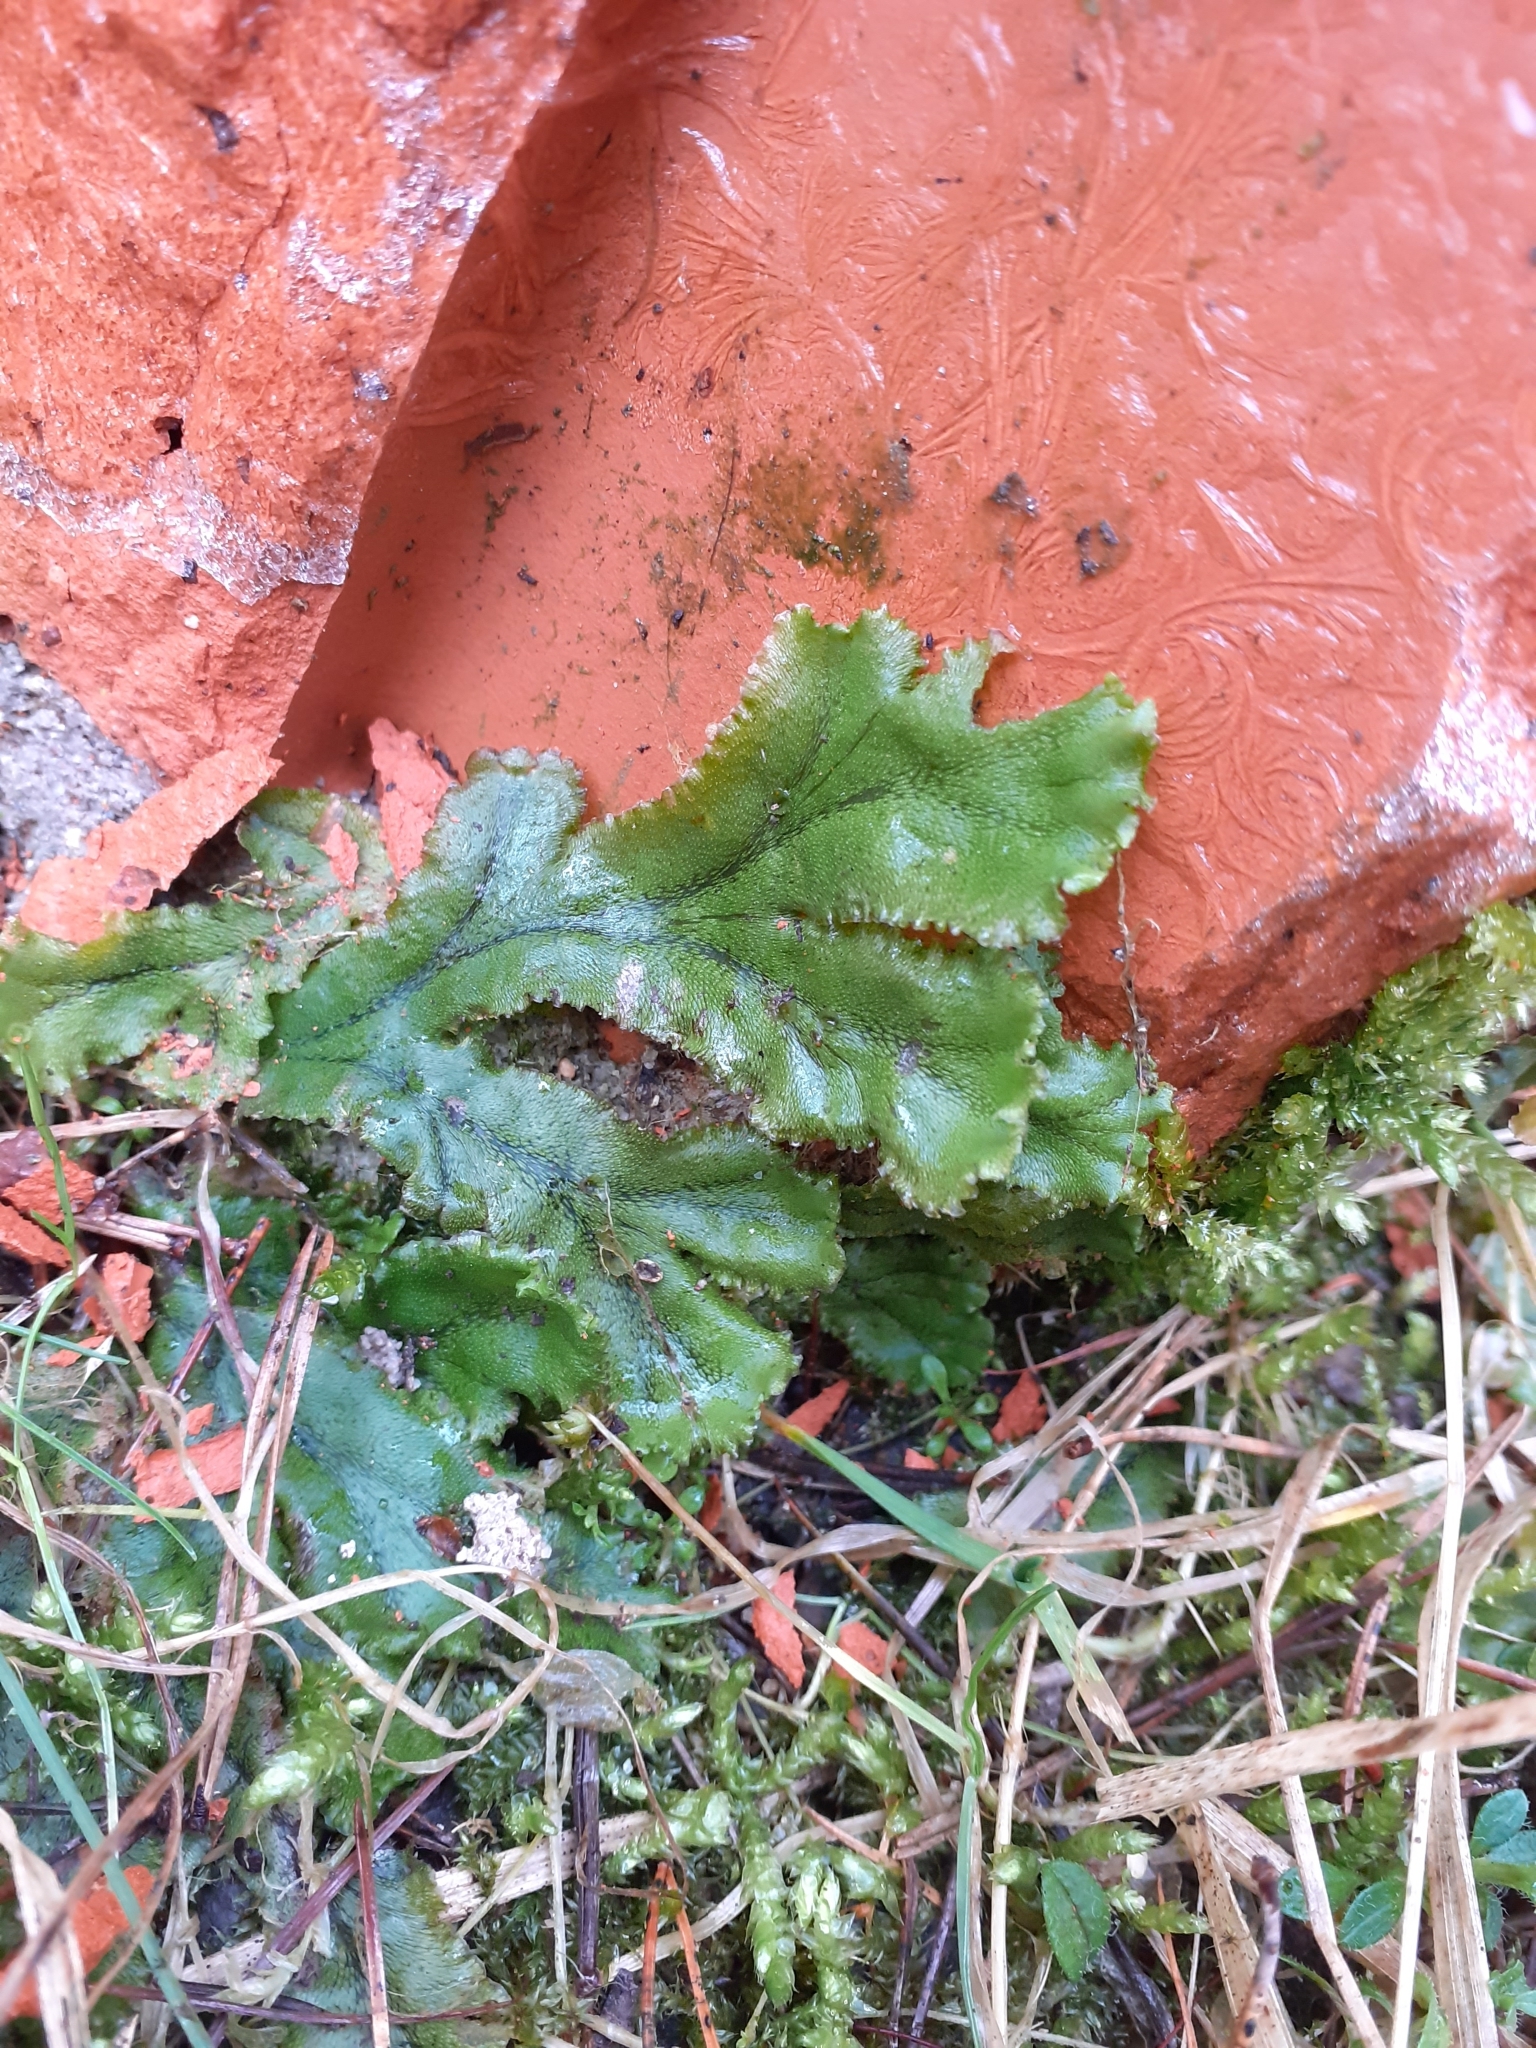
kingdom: Plantae
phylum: Marchantiophyta
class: Marchantiopsida
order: Marchantiales
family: Marchantiaceae
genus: Marchantia
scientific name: Marchantia polymorpha
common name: Common liverwort
